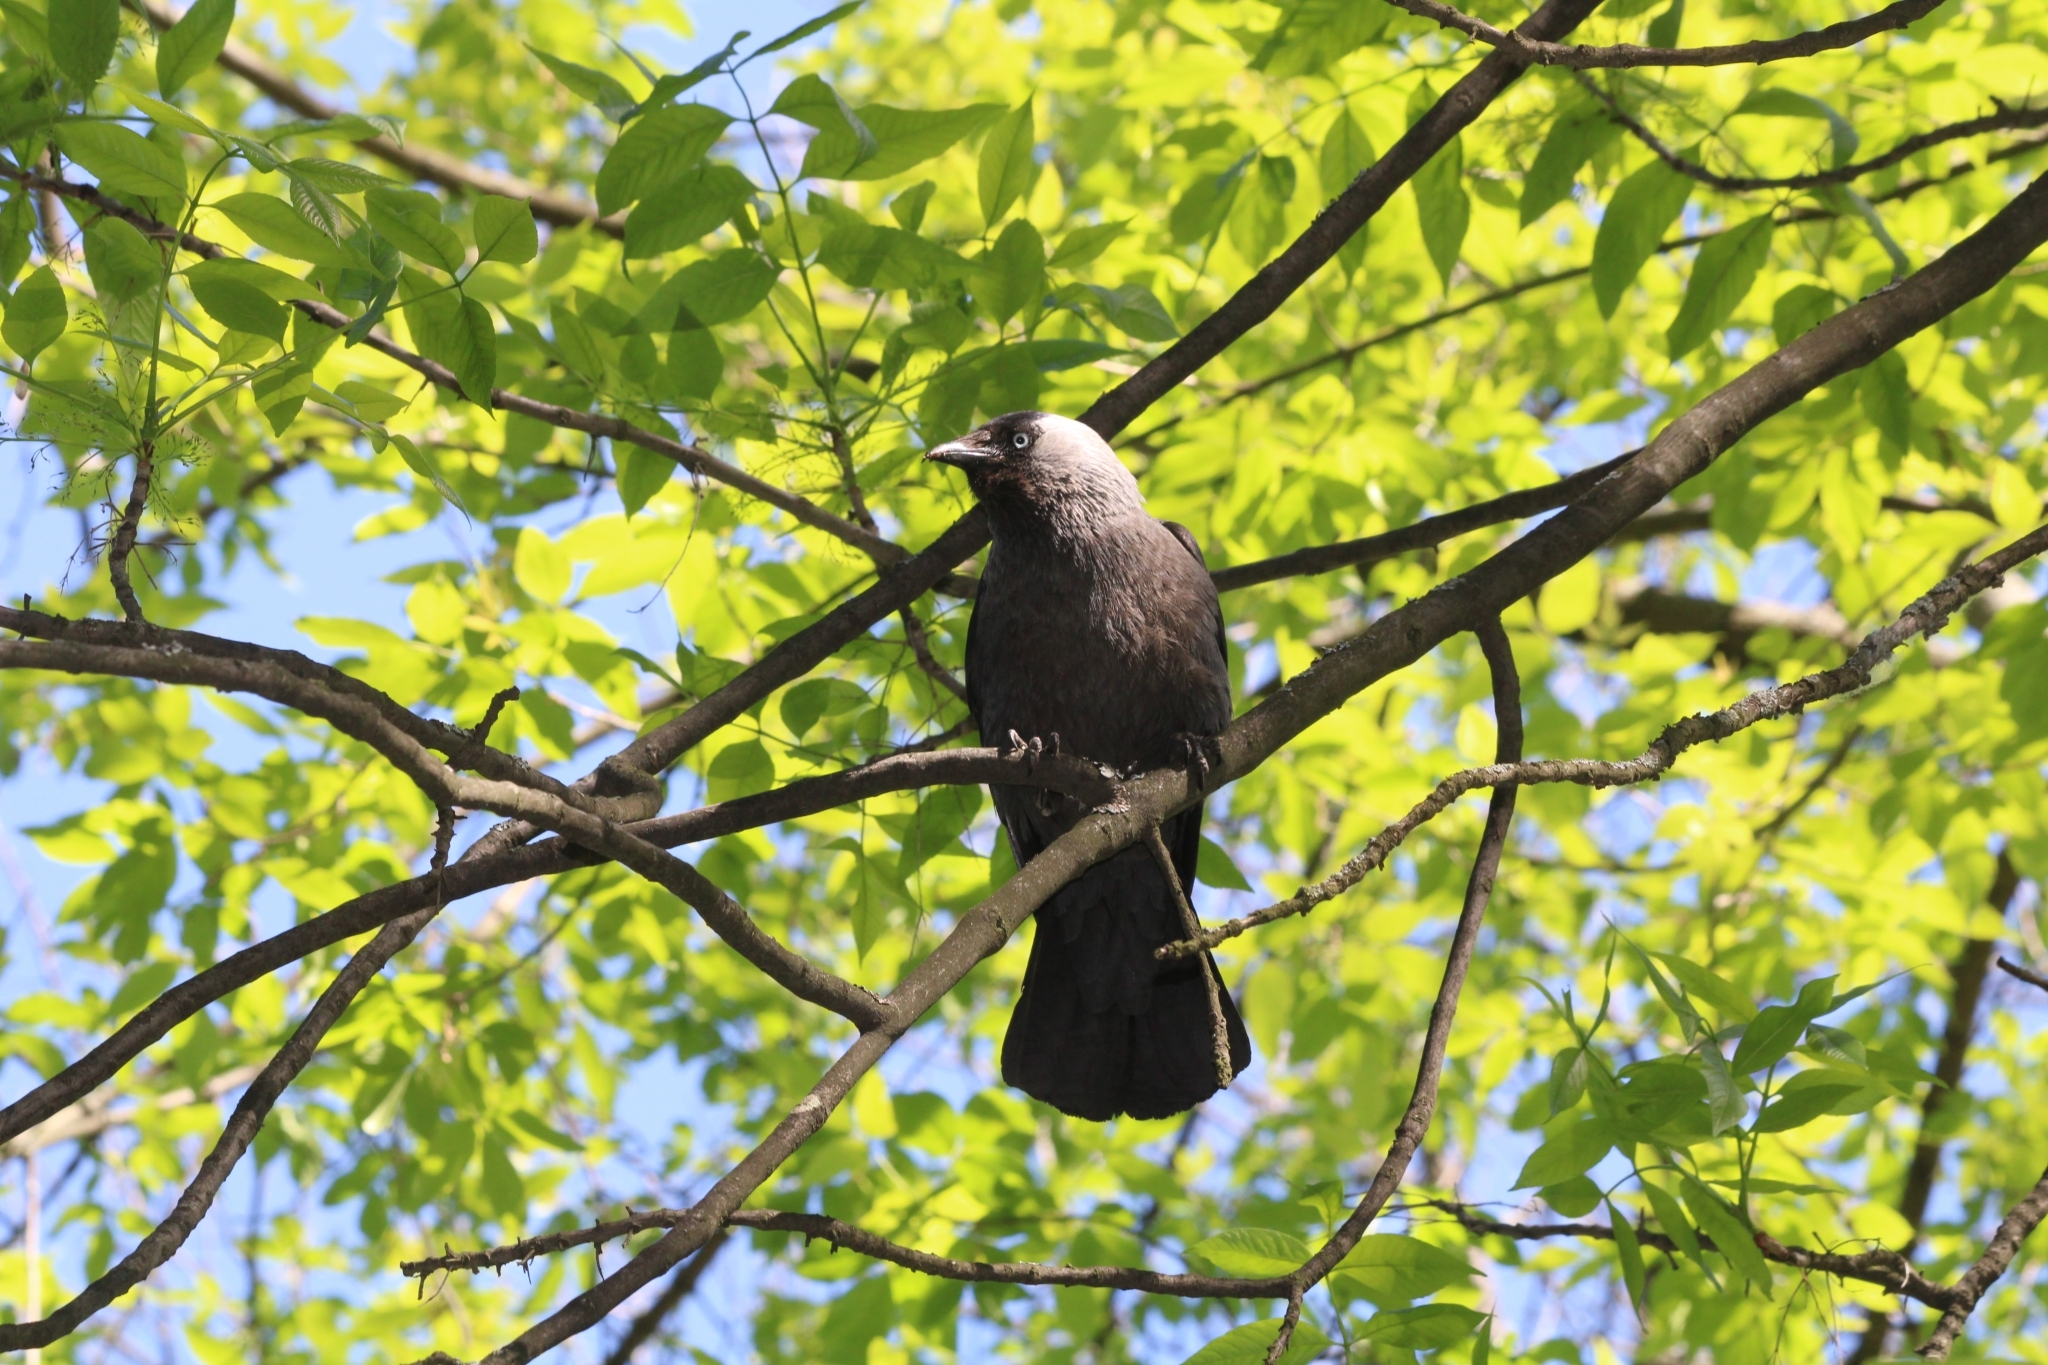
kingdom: Animalia
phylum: Chordata
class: Aves
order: Passeriformes
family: Corvidae
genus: Coloeus
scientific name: Coloeus monedula
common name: Western jackdaw
